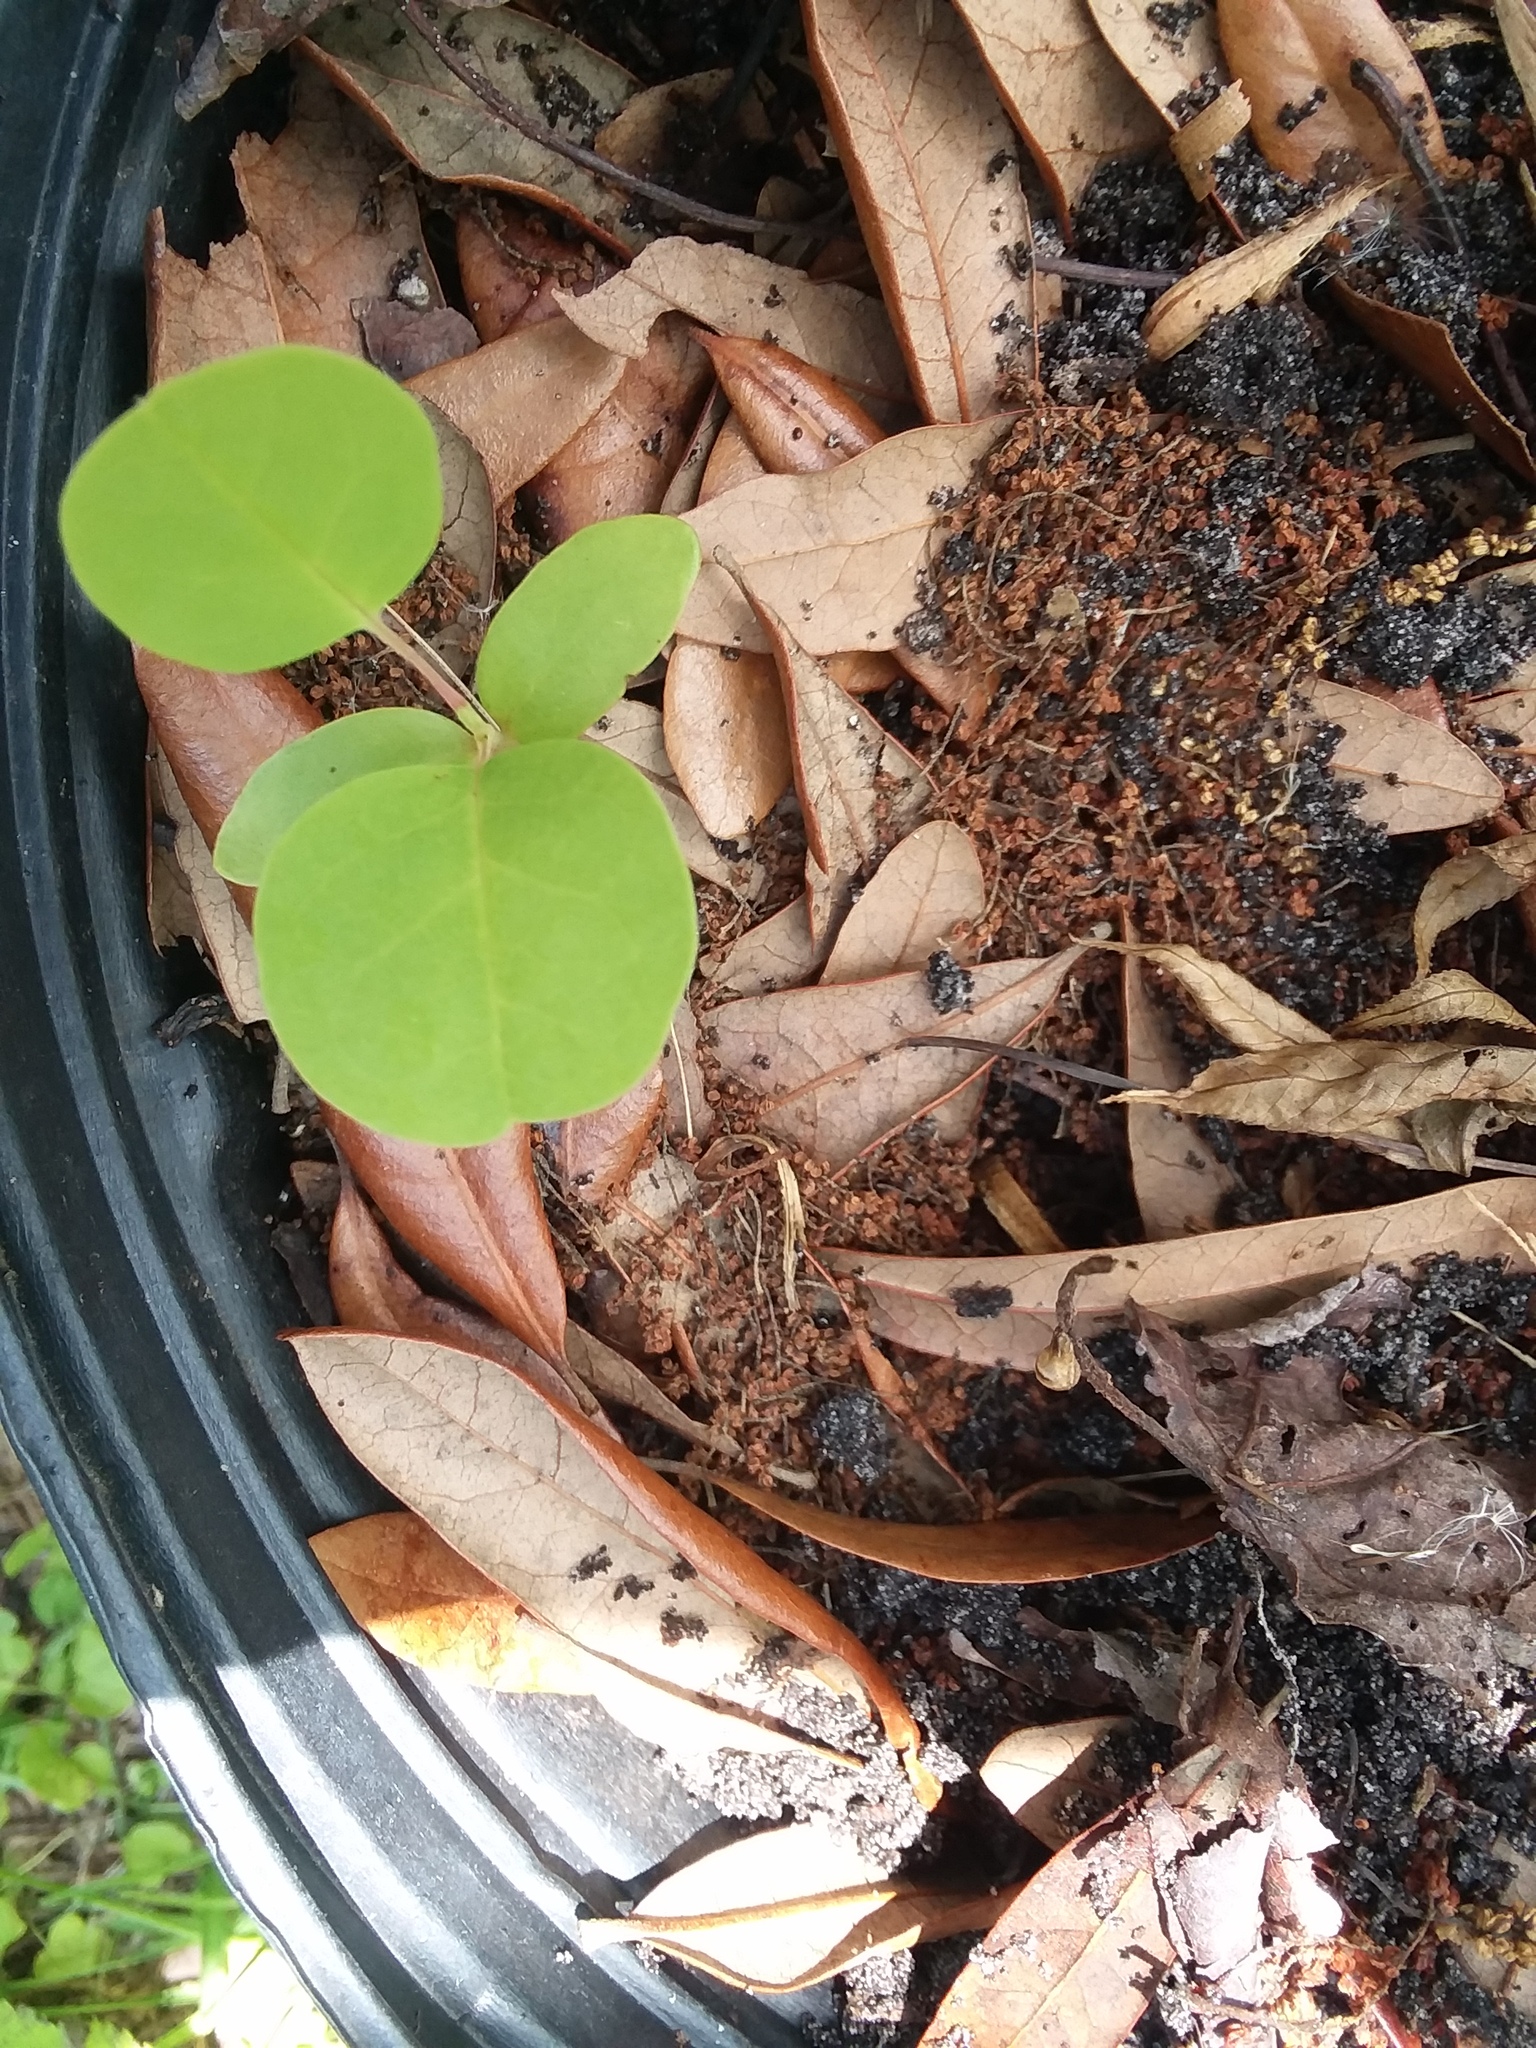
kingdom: Plantae
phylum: Tracheophyta
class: Magnoliopsida
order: Magnoliales
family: Magnoliaceae
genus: Liriodendron
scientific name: Liriodendron tulipifera
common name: Tulip tree
